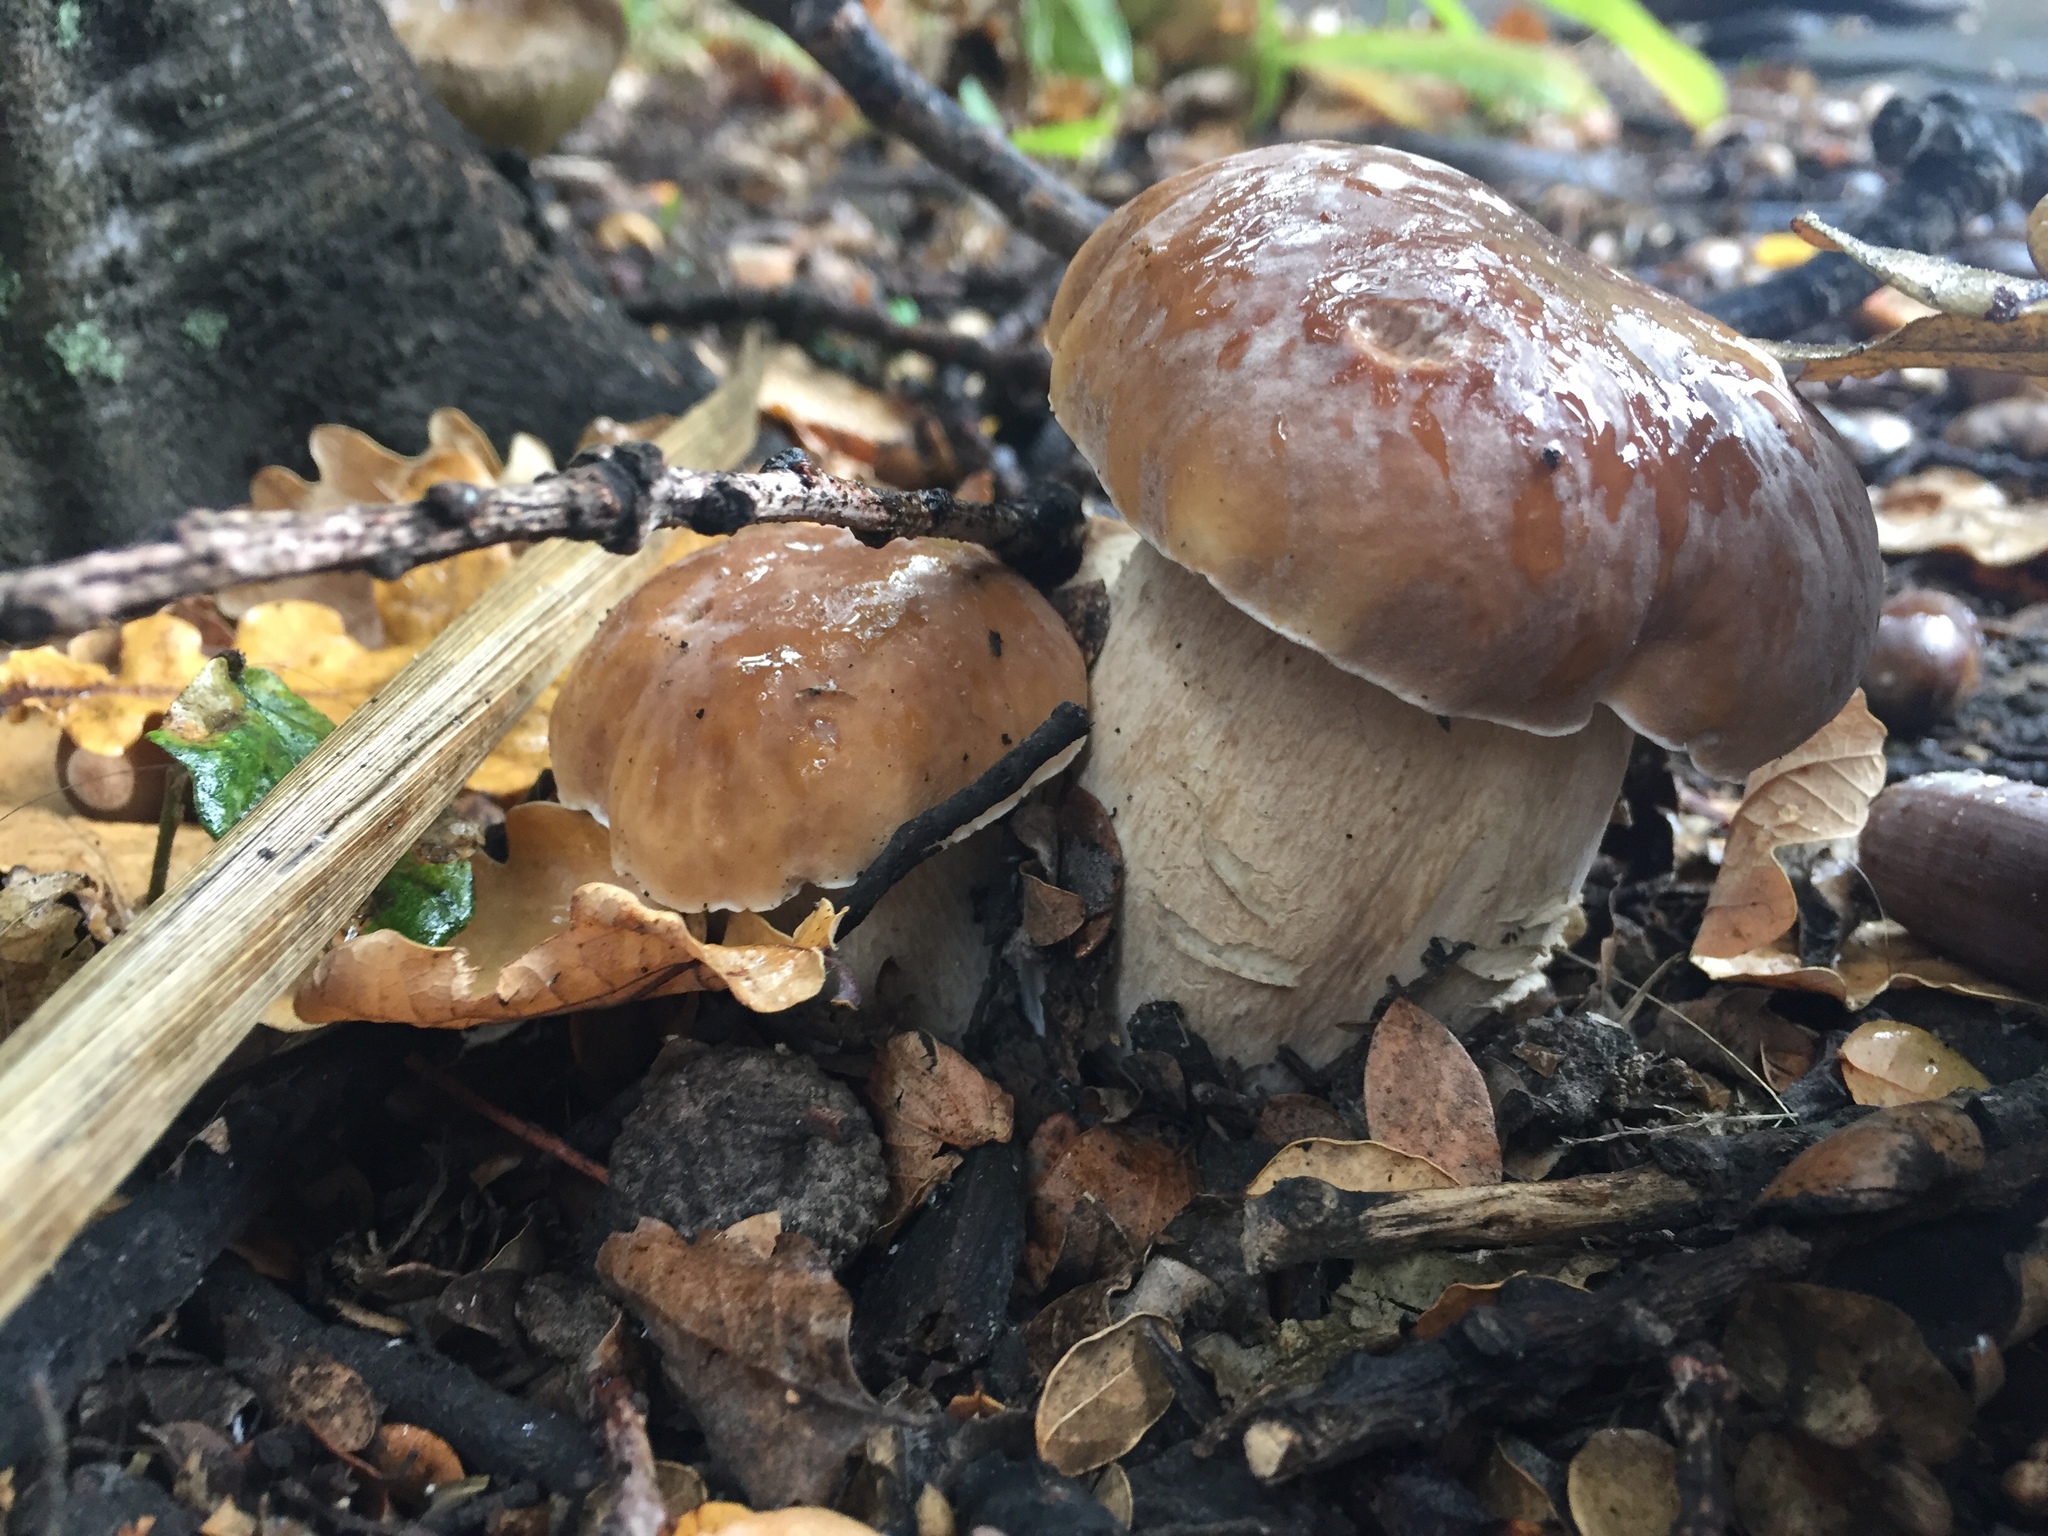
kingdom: Fungi
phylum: Basidiomycota
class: Agaricomycetes
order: Boletales
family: Boletaceae
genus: Boletus
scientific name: Boletus edulis
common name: Cep
